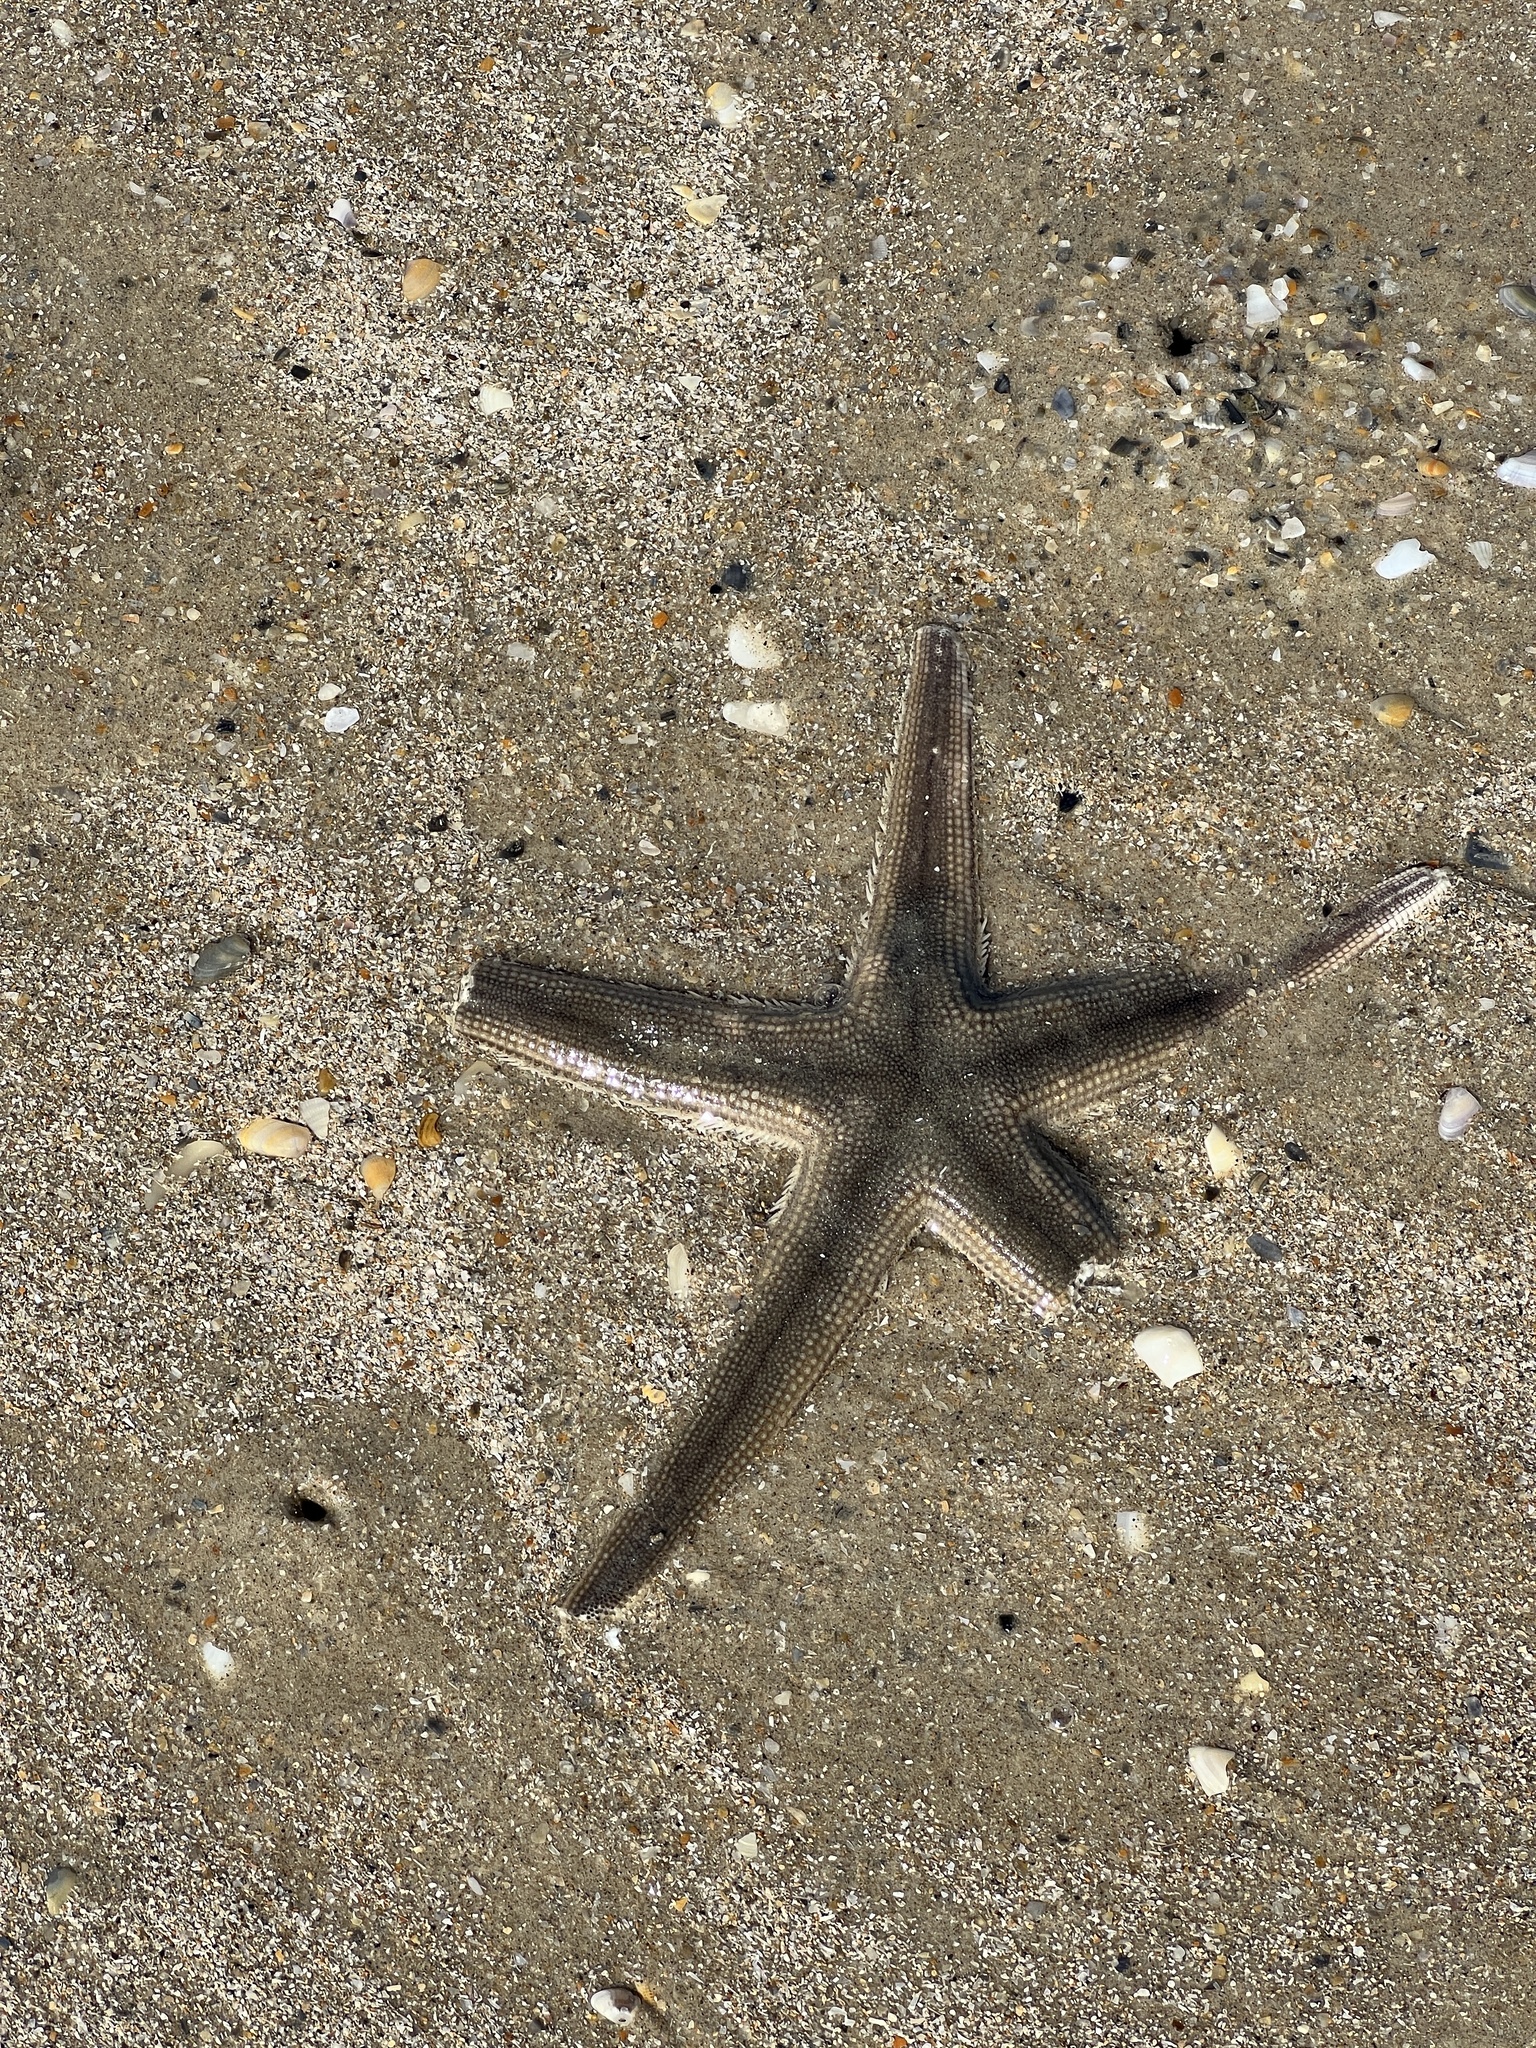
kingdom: Animalia
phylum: Echinodermata
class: Asteroidea
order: Paxillosida
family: Luidiidae
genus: Luidia
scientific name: Luidia clathrata
